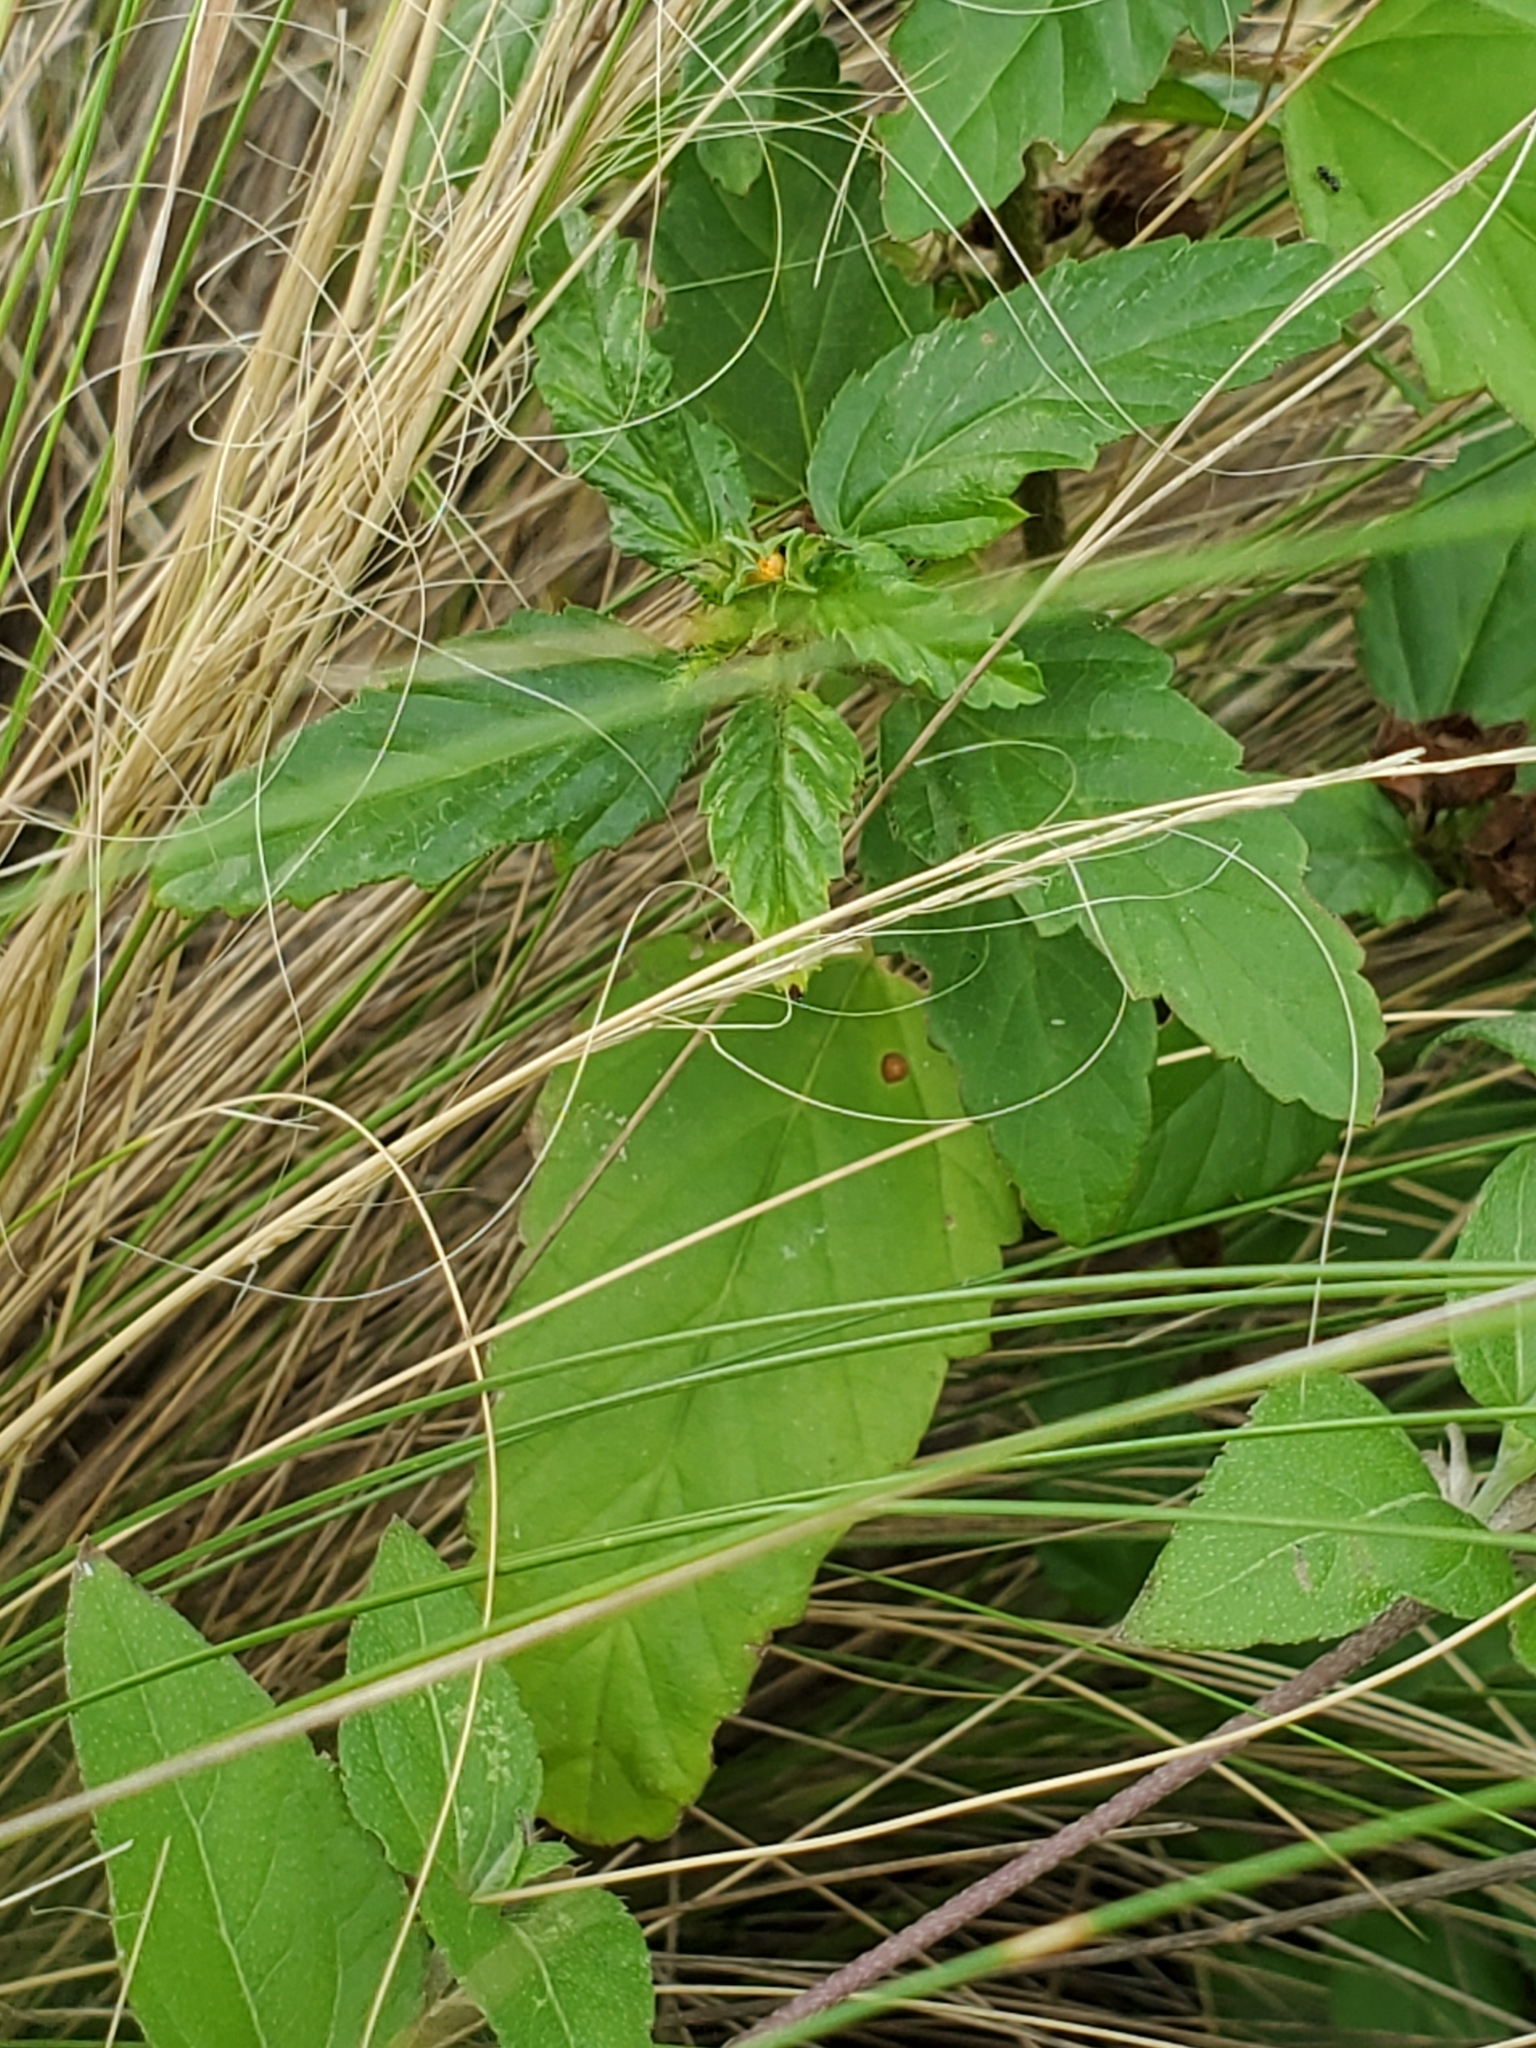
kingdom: Plantae
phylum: Tracheophyta
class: Magnoliopsida
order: Malvales
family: Malvaceae
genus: Malvastrum
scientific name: Malvastrum coromandelianum
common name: Threelobe false mallow
